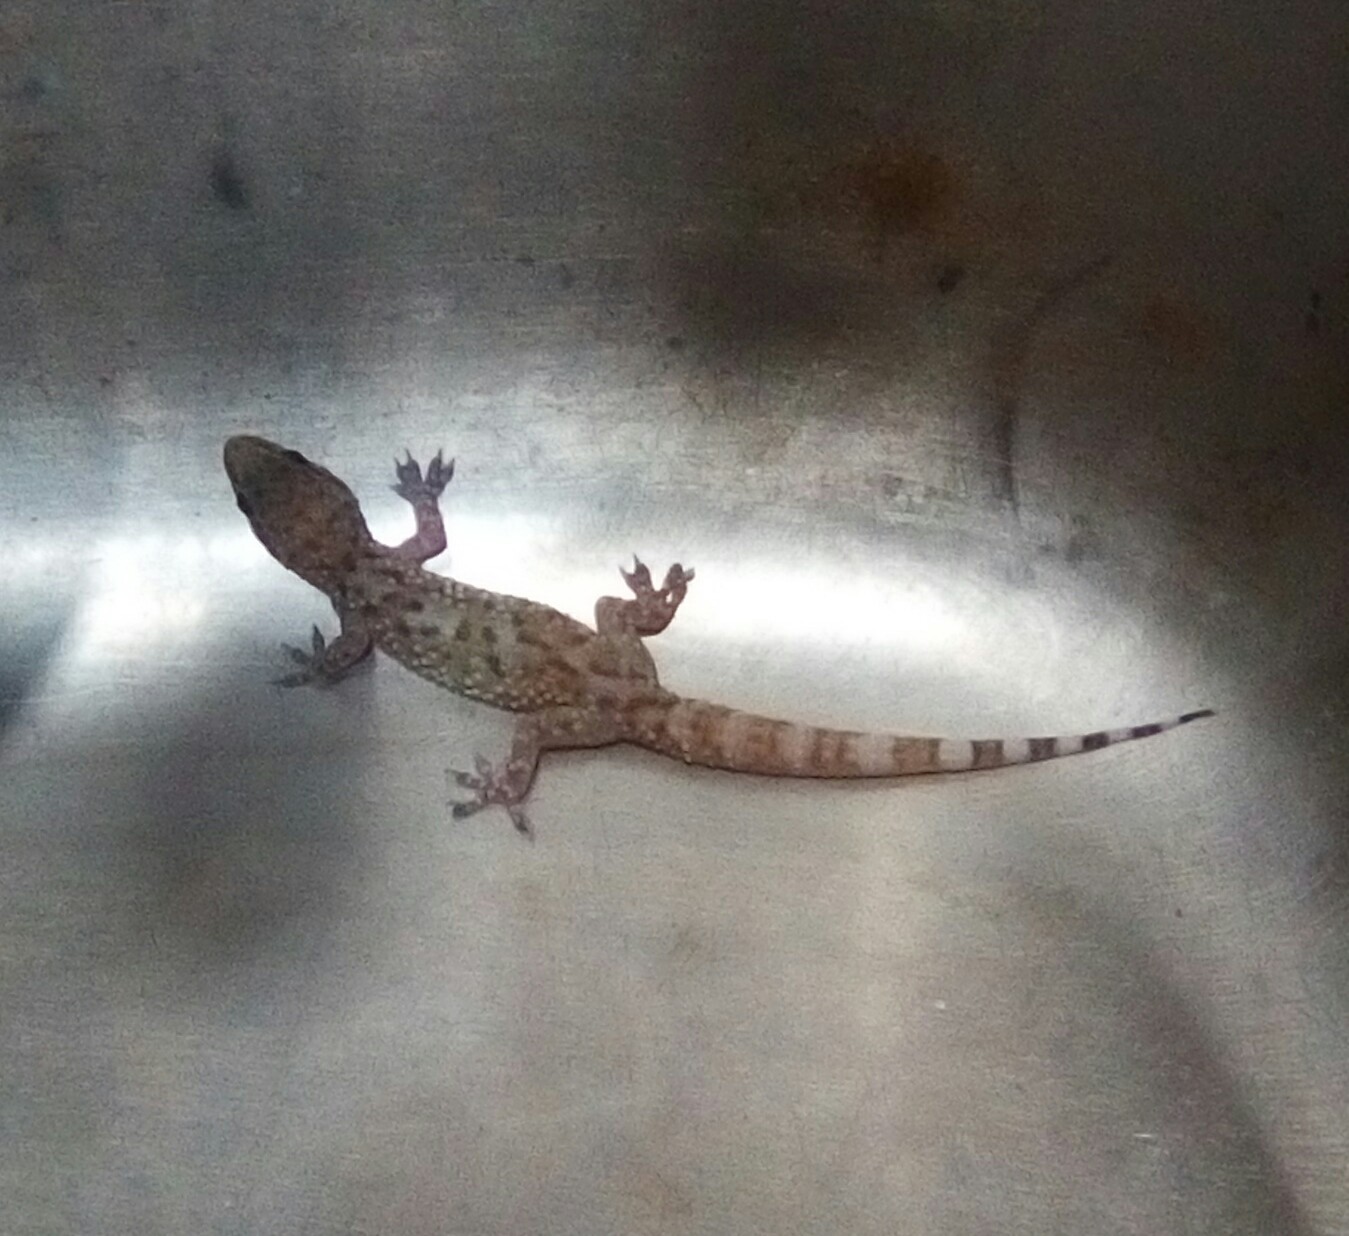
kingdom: Animalia
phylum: Chordata
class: Squamata
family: Gekkonidae
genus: Hemidactylus
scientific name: Hemidactylus turcicus
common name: Turkish gecko
